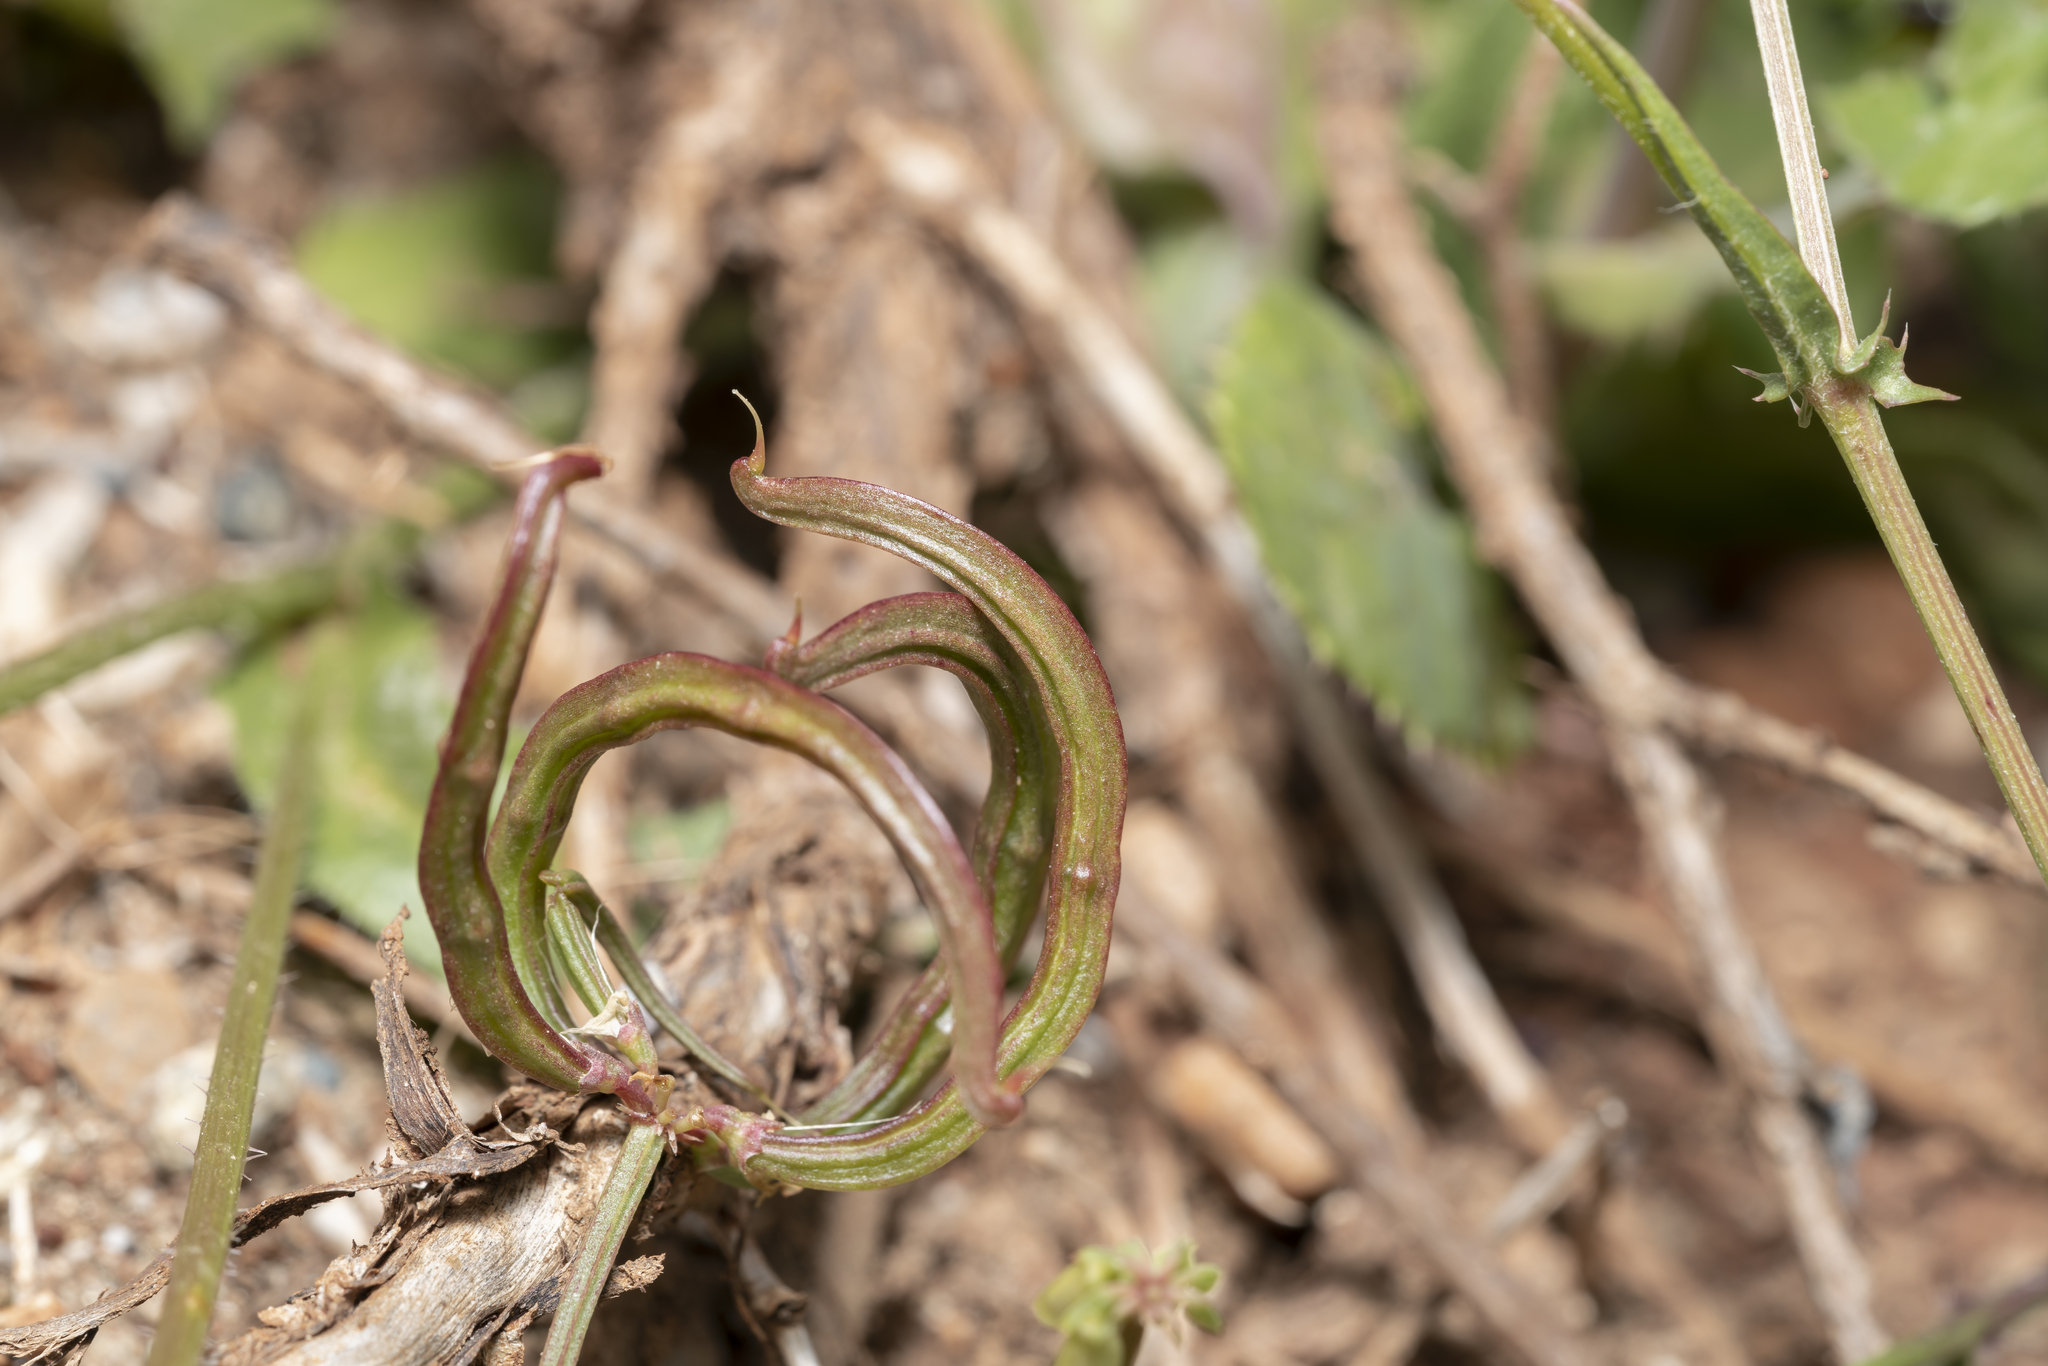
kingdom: Plantae
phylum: Tracheophyta
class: Magnoliopsida
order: Fabales
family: Fabaceae
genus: Coronilla
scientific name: Coronilla carinata
